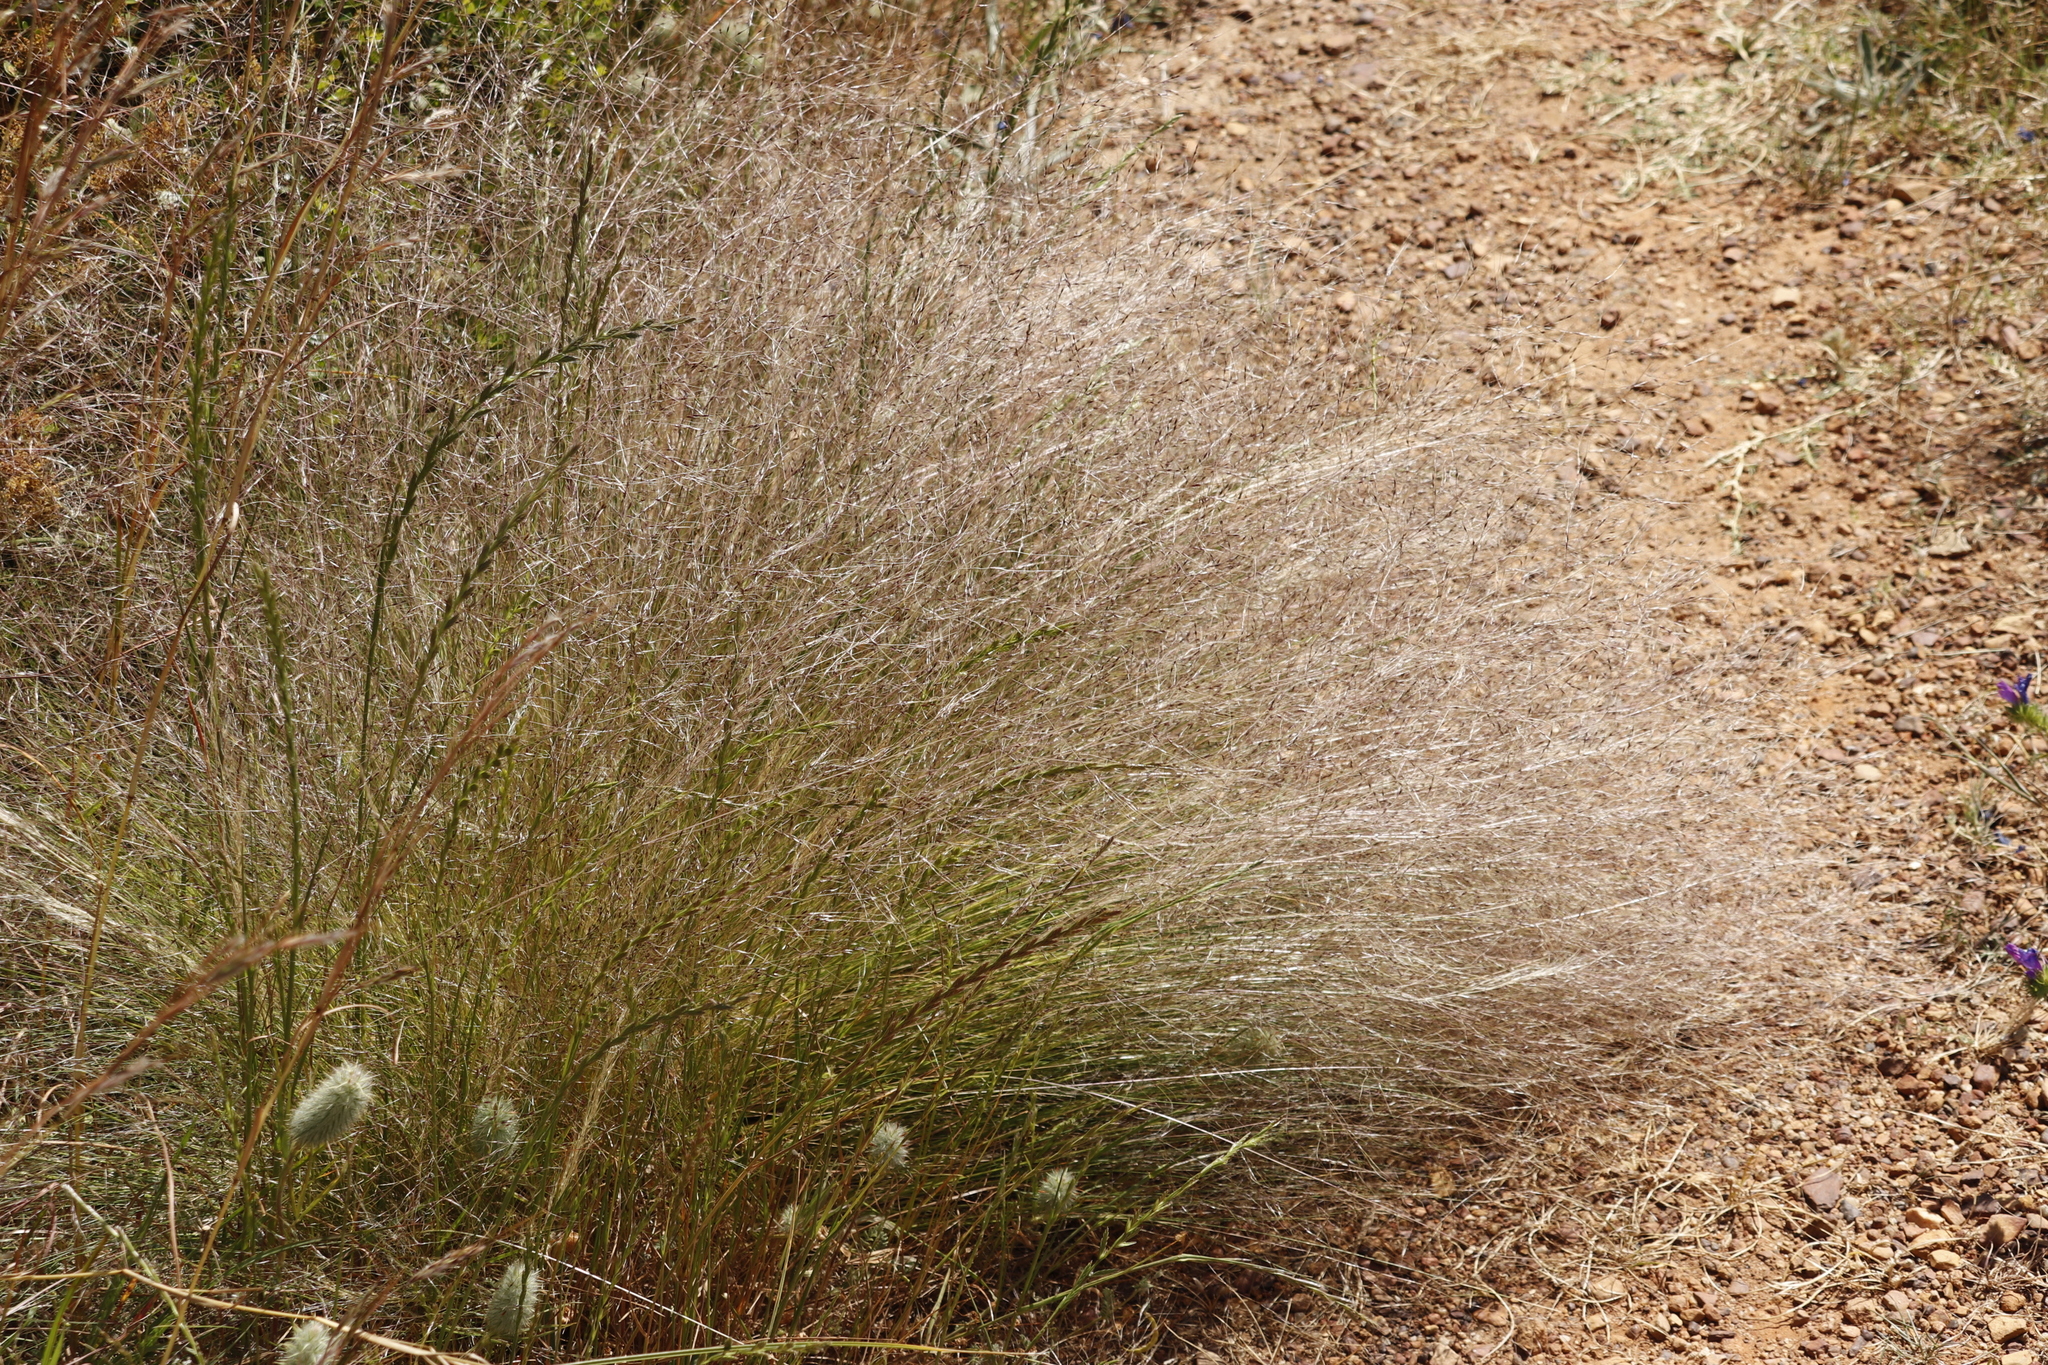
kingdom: Plantae
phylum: Tracheophyta
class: Liliopsida
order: Poales
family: Poaceae
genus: Nassella
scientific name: Nassella trichotoma
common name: Serrated tussock grass
